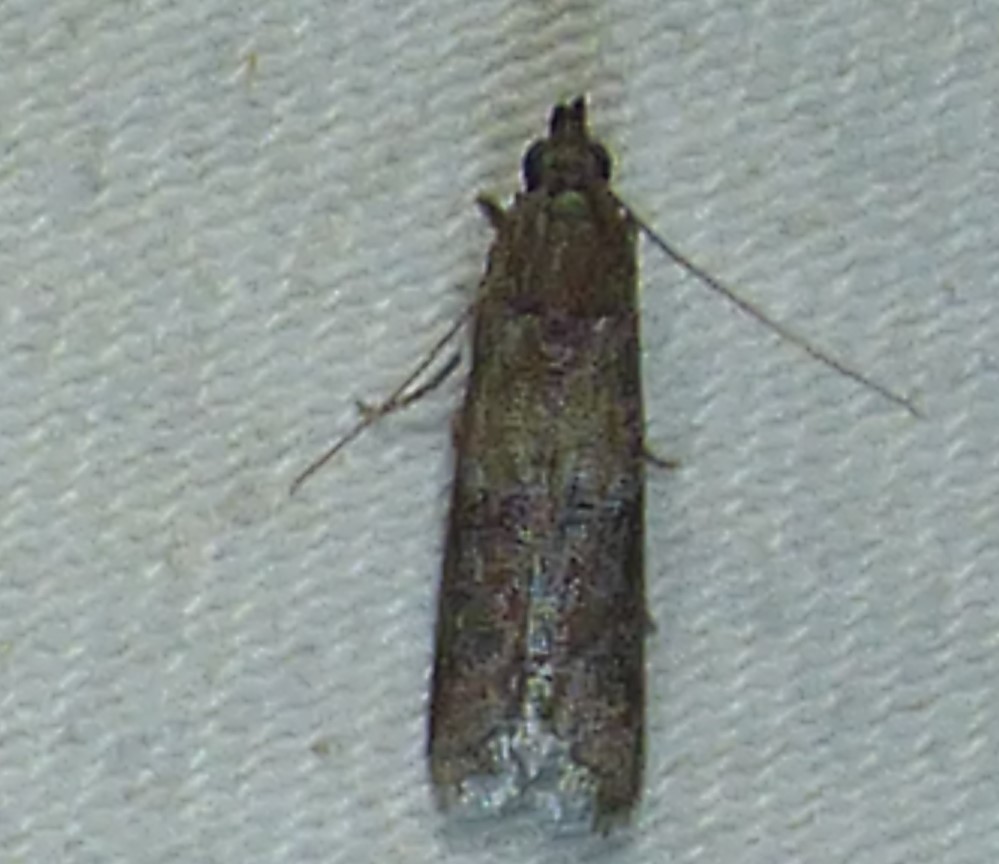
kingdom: Animalia
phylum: Arthropoda
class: Insecta
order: Lepidoptera
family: Pyralidae
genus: Ephestiodes
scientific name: Ephestiodes infimella
